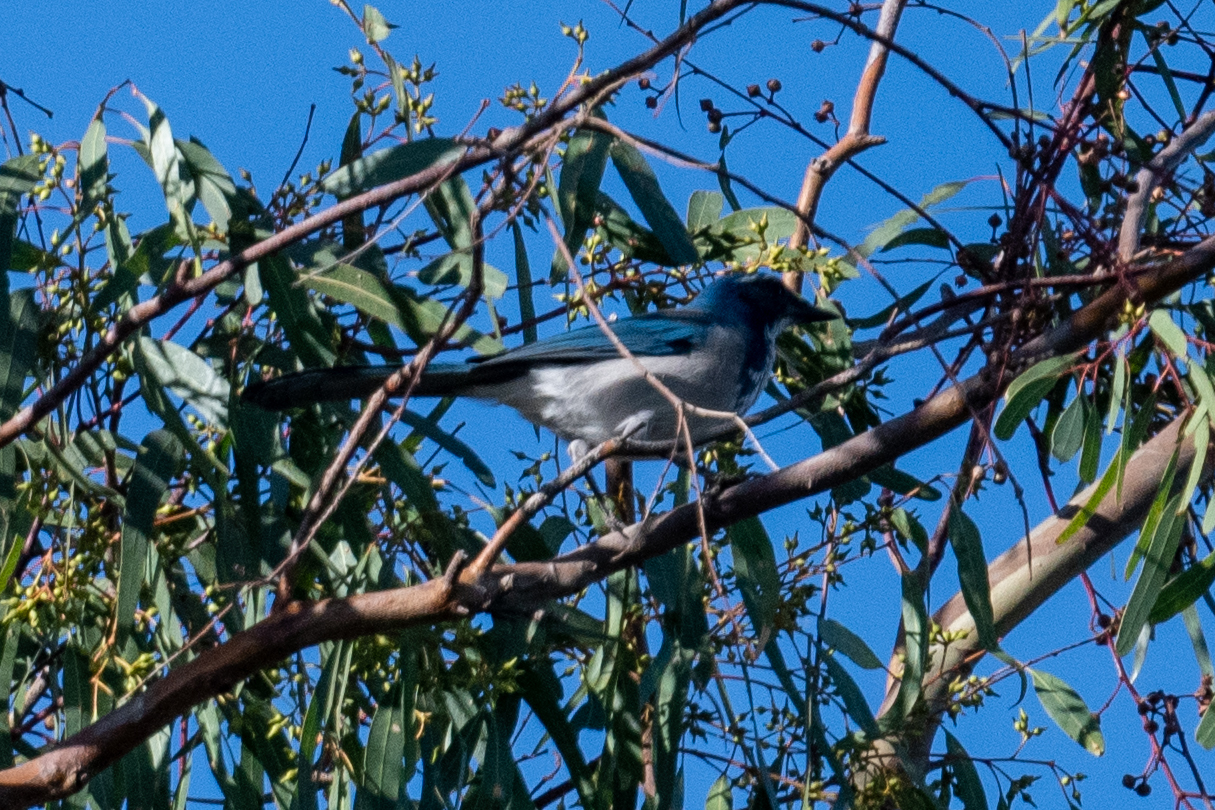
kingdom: Animalia
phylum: Chordata
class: Aves
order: Passeriformes
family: Corvidae
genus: Aphelocoma
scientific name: Aphelocoma californica
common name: California scrub-jay
